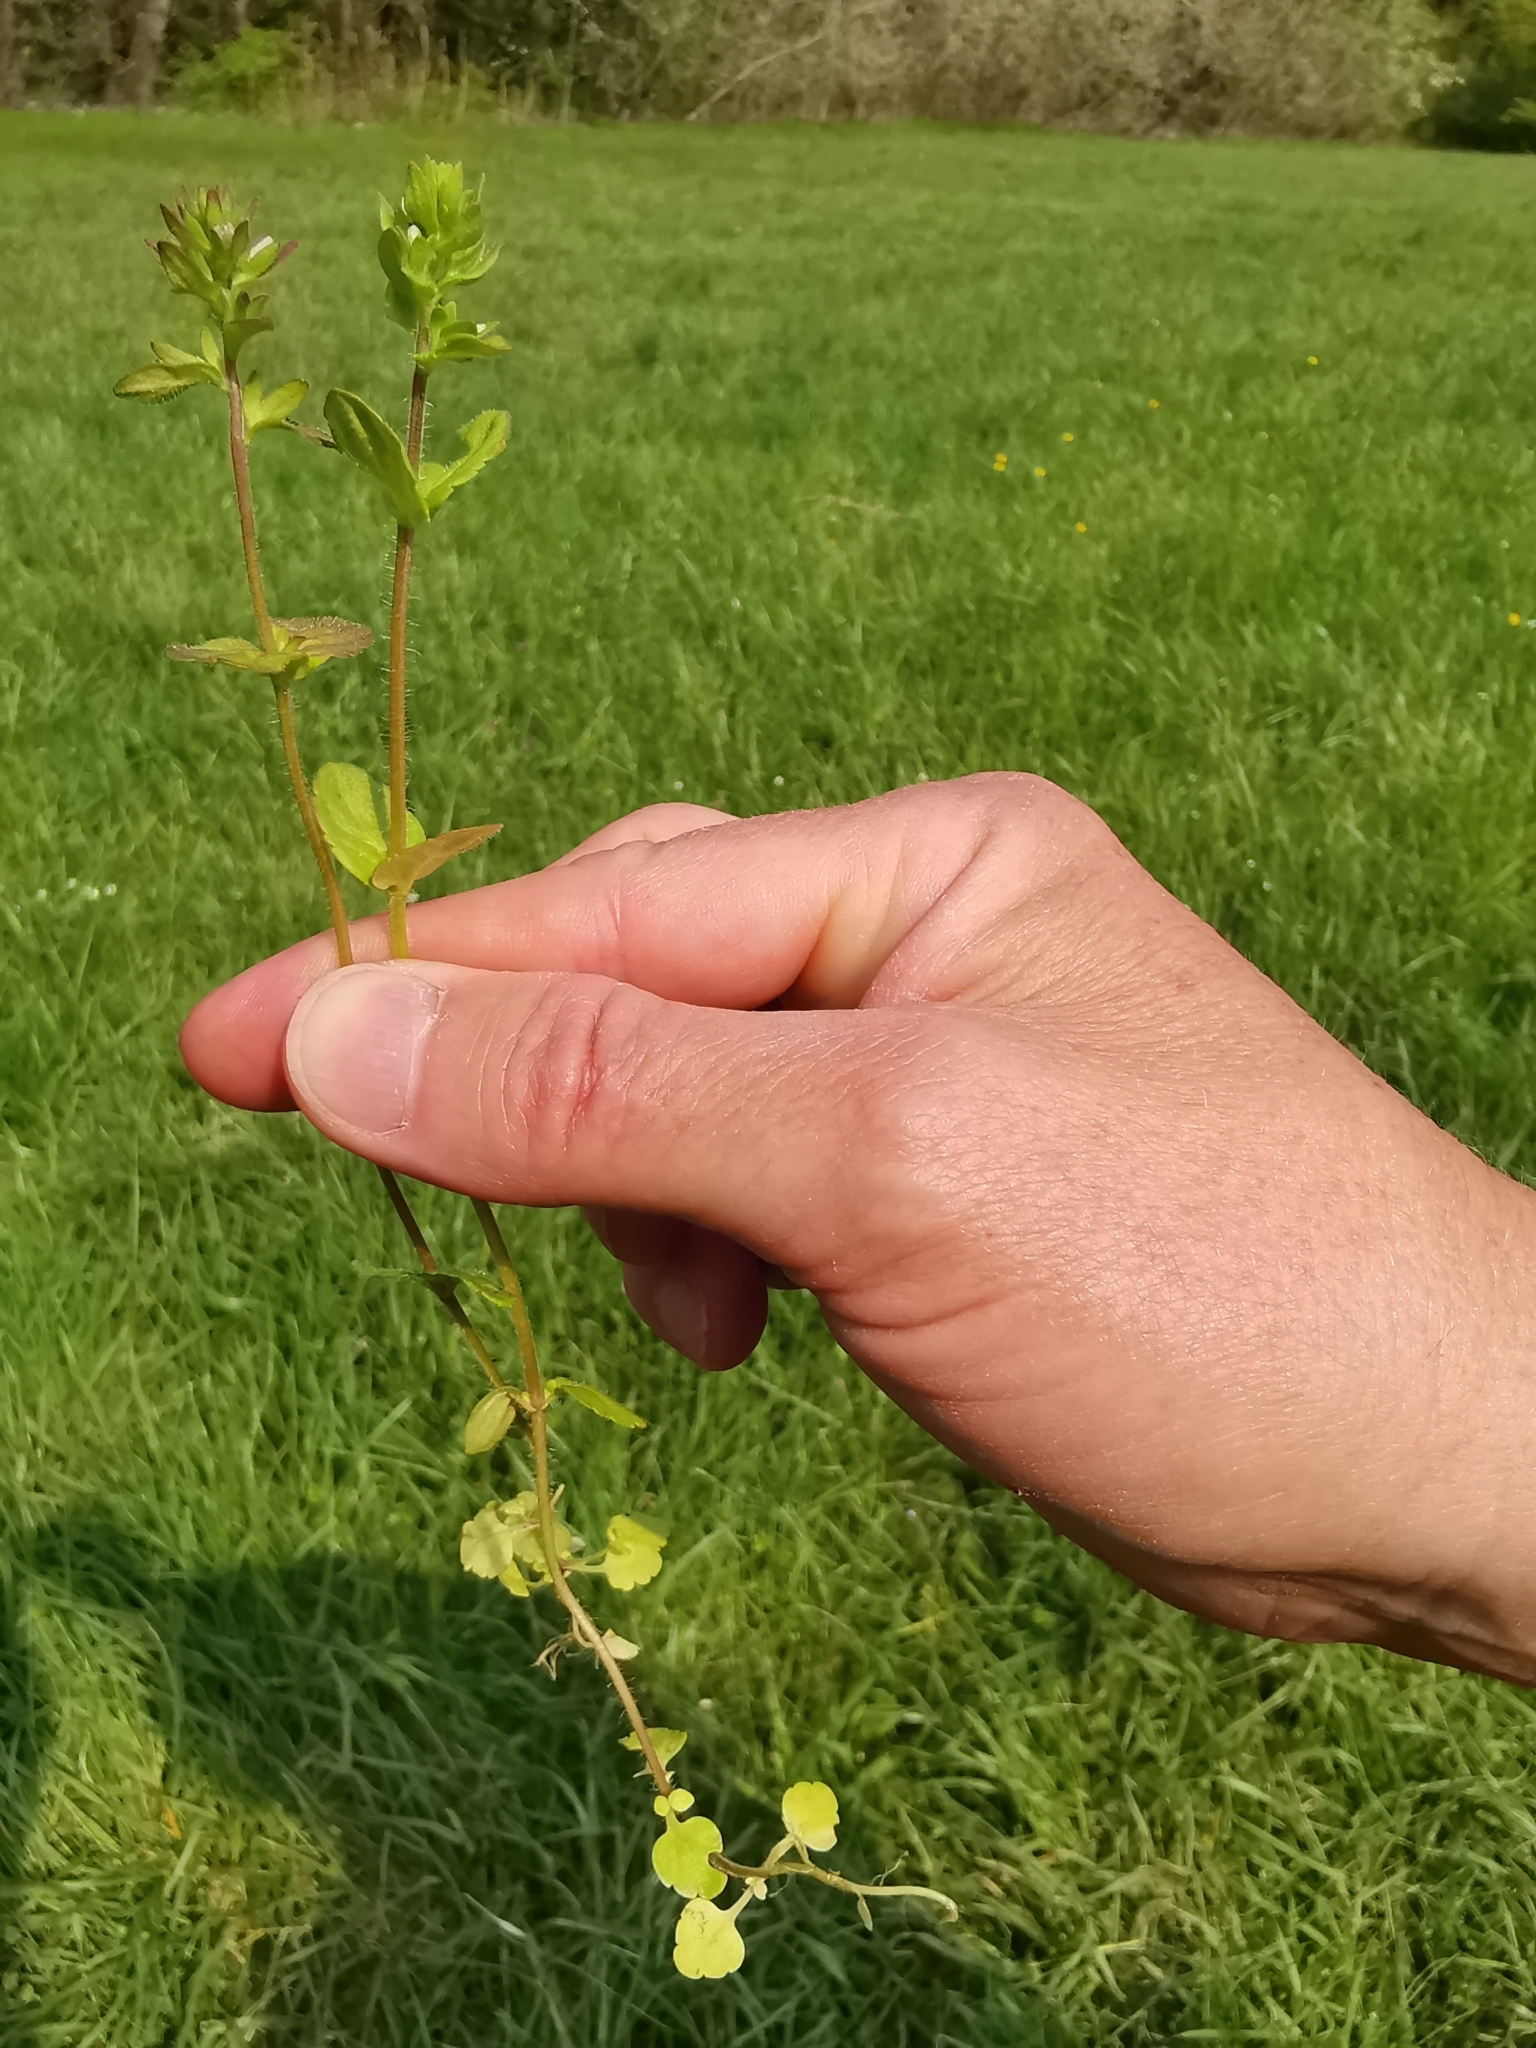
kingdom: Plantae
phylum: Tracheophyta
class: Magnoliopsida
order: Lamiales
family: Plantaginaceae
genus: Veronica
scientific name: Veronica arvensis
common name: Corn speedwell
